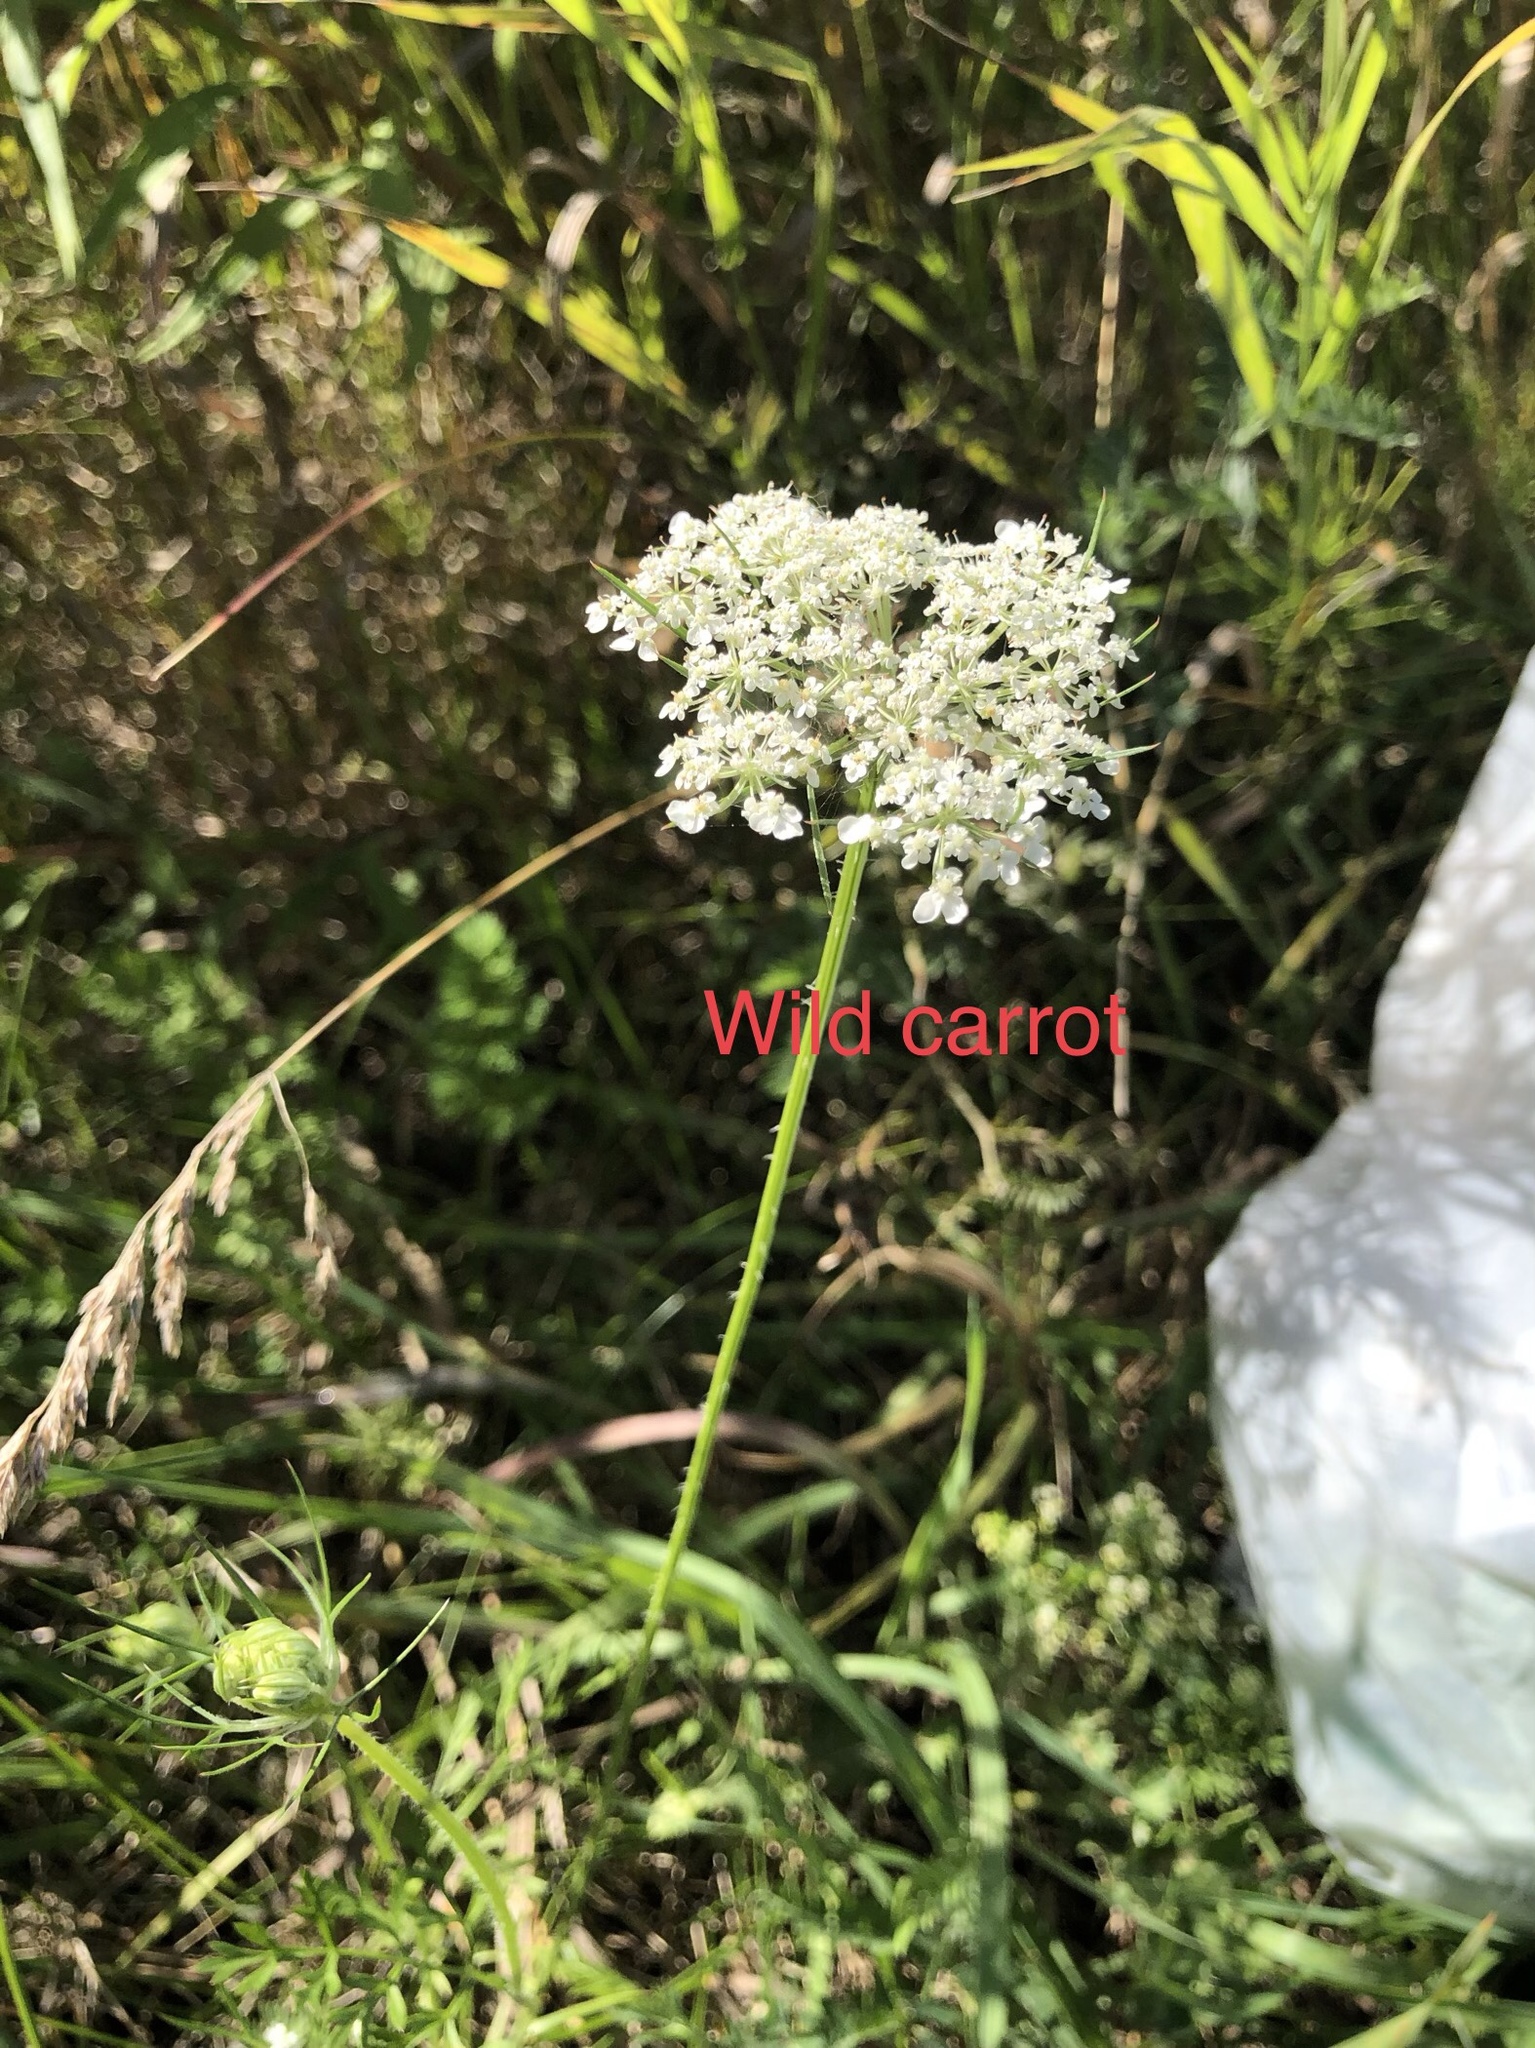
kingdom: Plantae
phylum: Tracheophyta
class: Magnoliopsida
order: Apiales
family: Apiaceae
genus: Daucus
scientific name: Daucus carota
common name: Wild carrot
